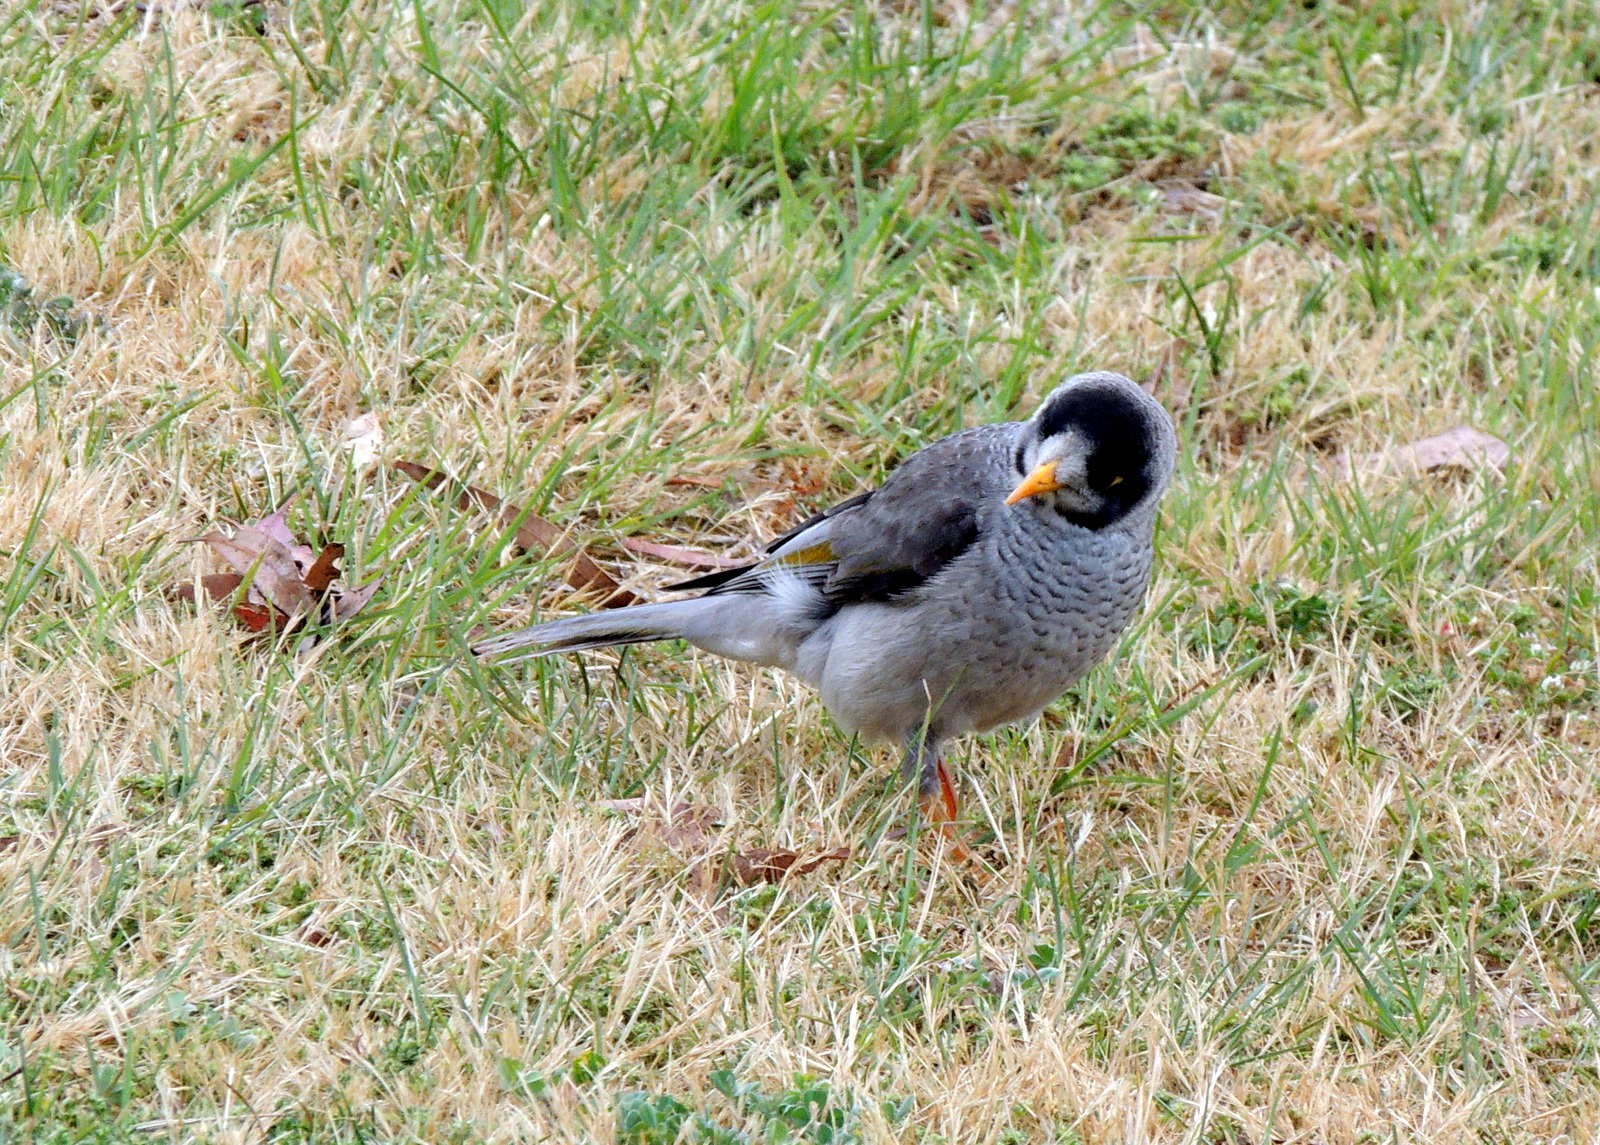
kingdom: Animalia
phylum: Chordata
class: Aves
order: Passeriformes
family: Meliphagidae
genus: Manorina
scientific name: Manorina melanocephala
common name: Noisy miner
